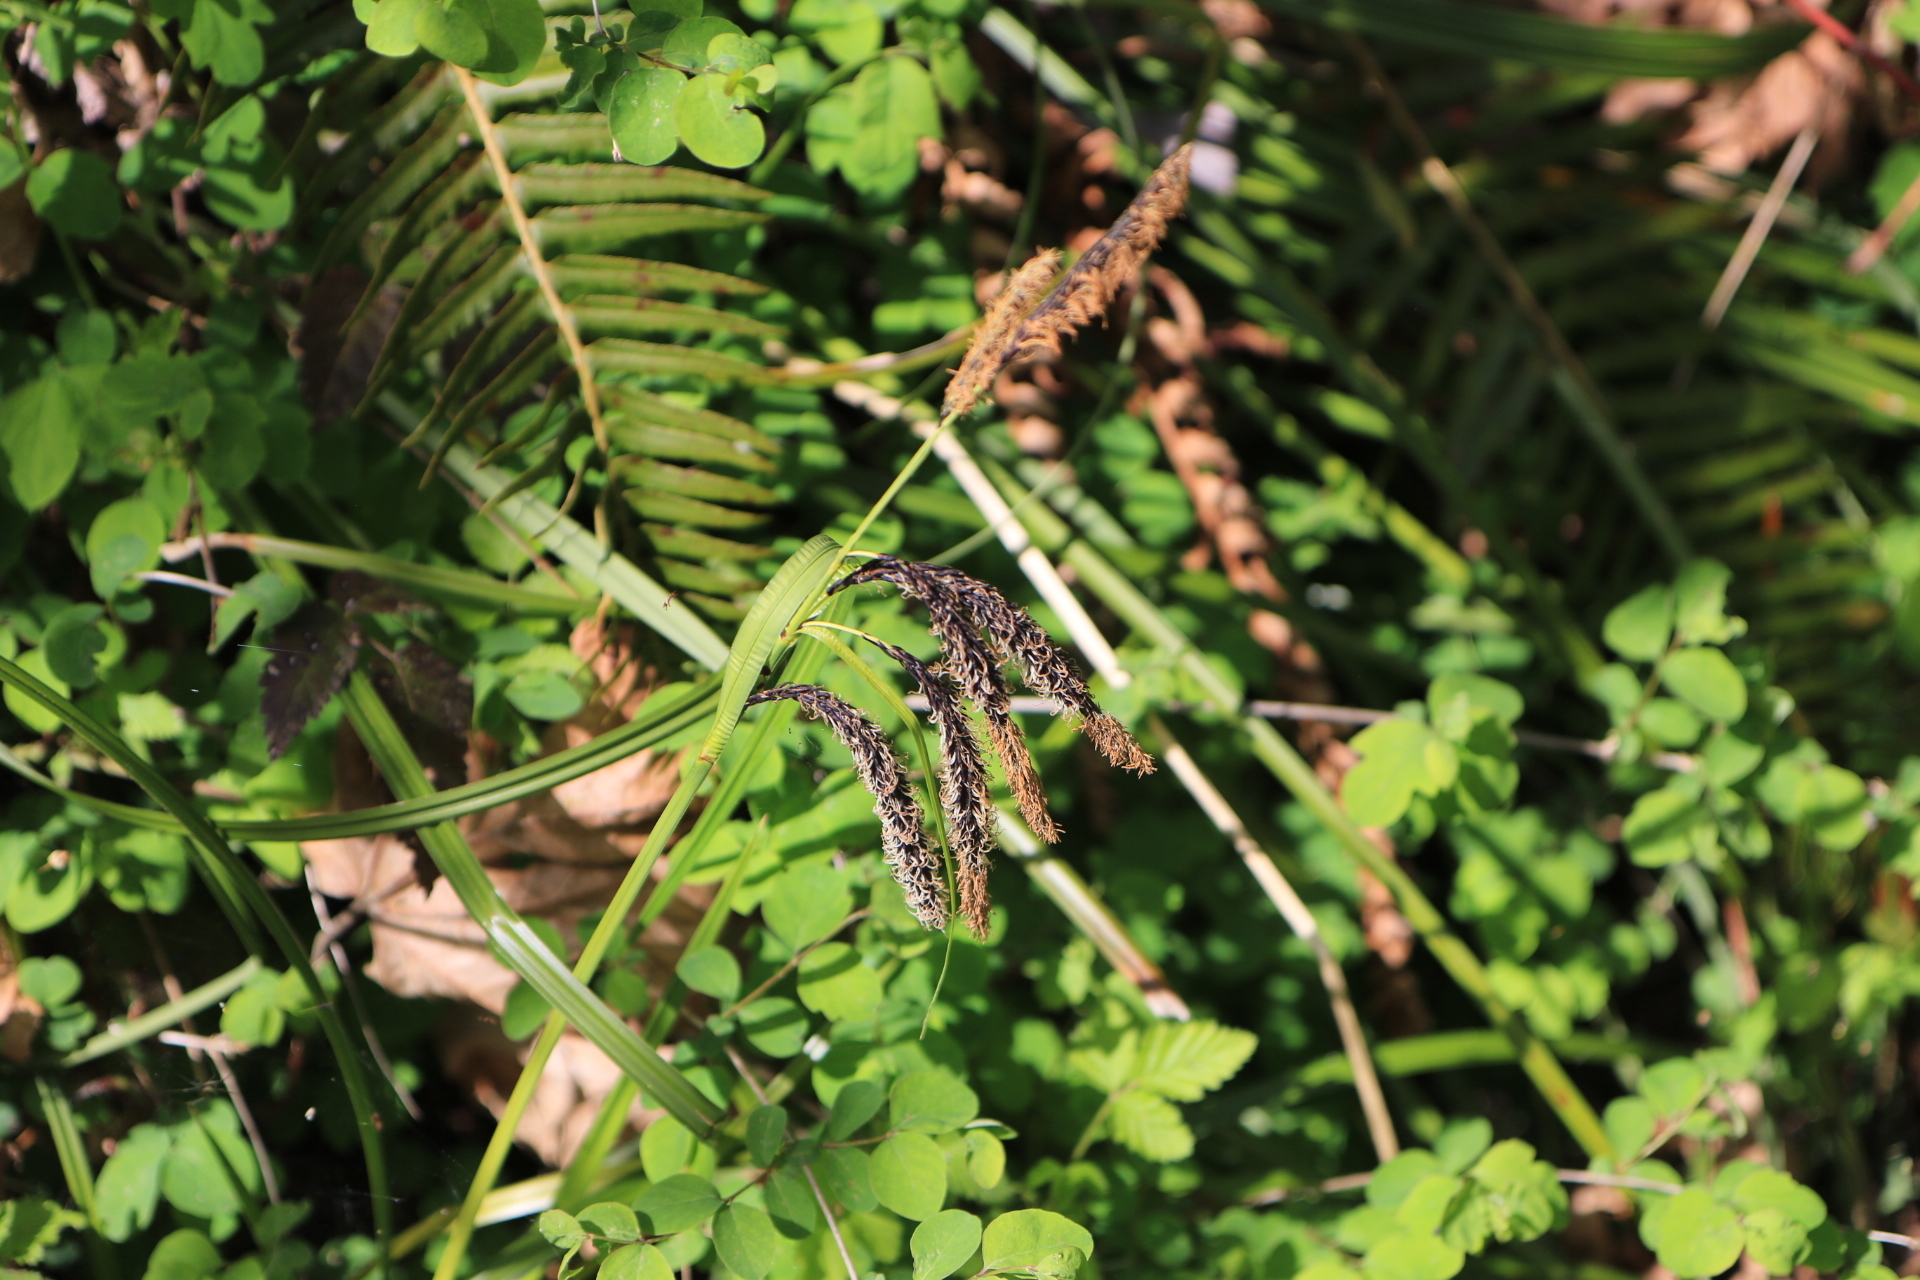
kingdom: Plantae
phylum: Tracheophyta
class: Liliopsida
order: Poales
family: Cyperaceae
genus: Carex
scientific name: Carex obnupta
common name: Slough sedge
